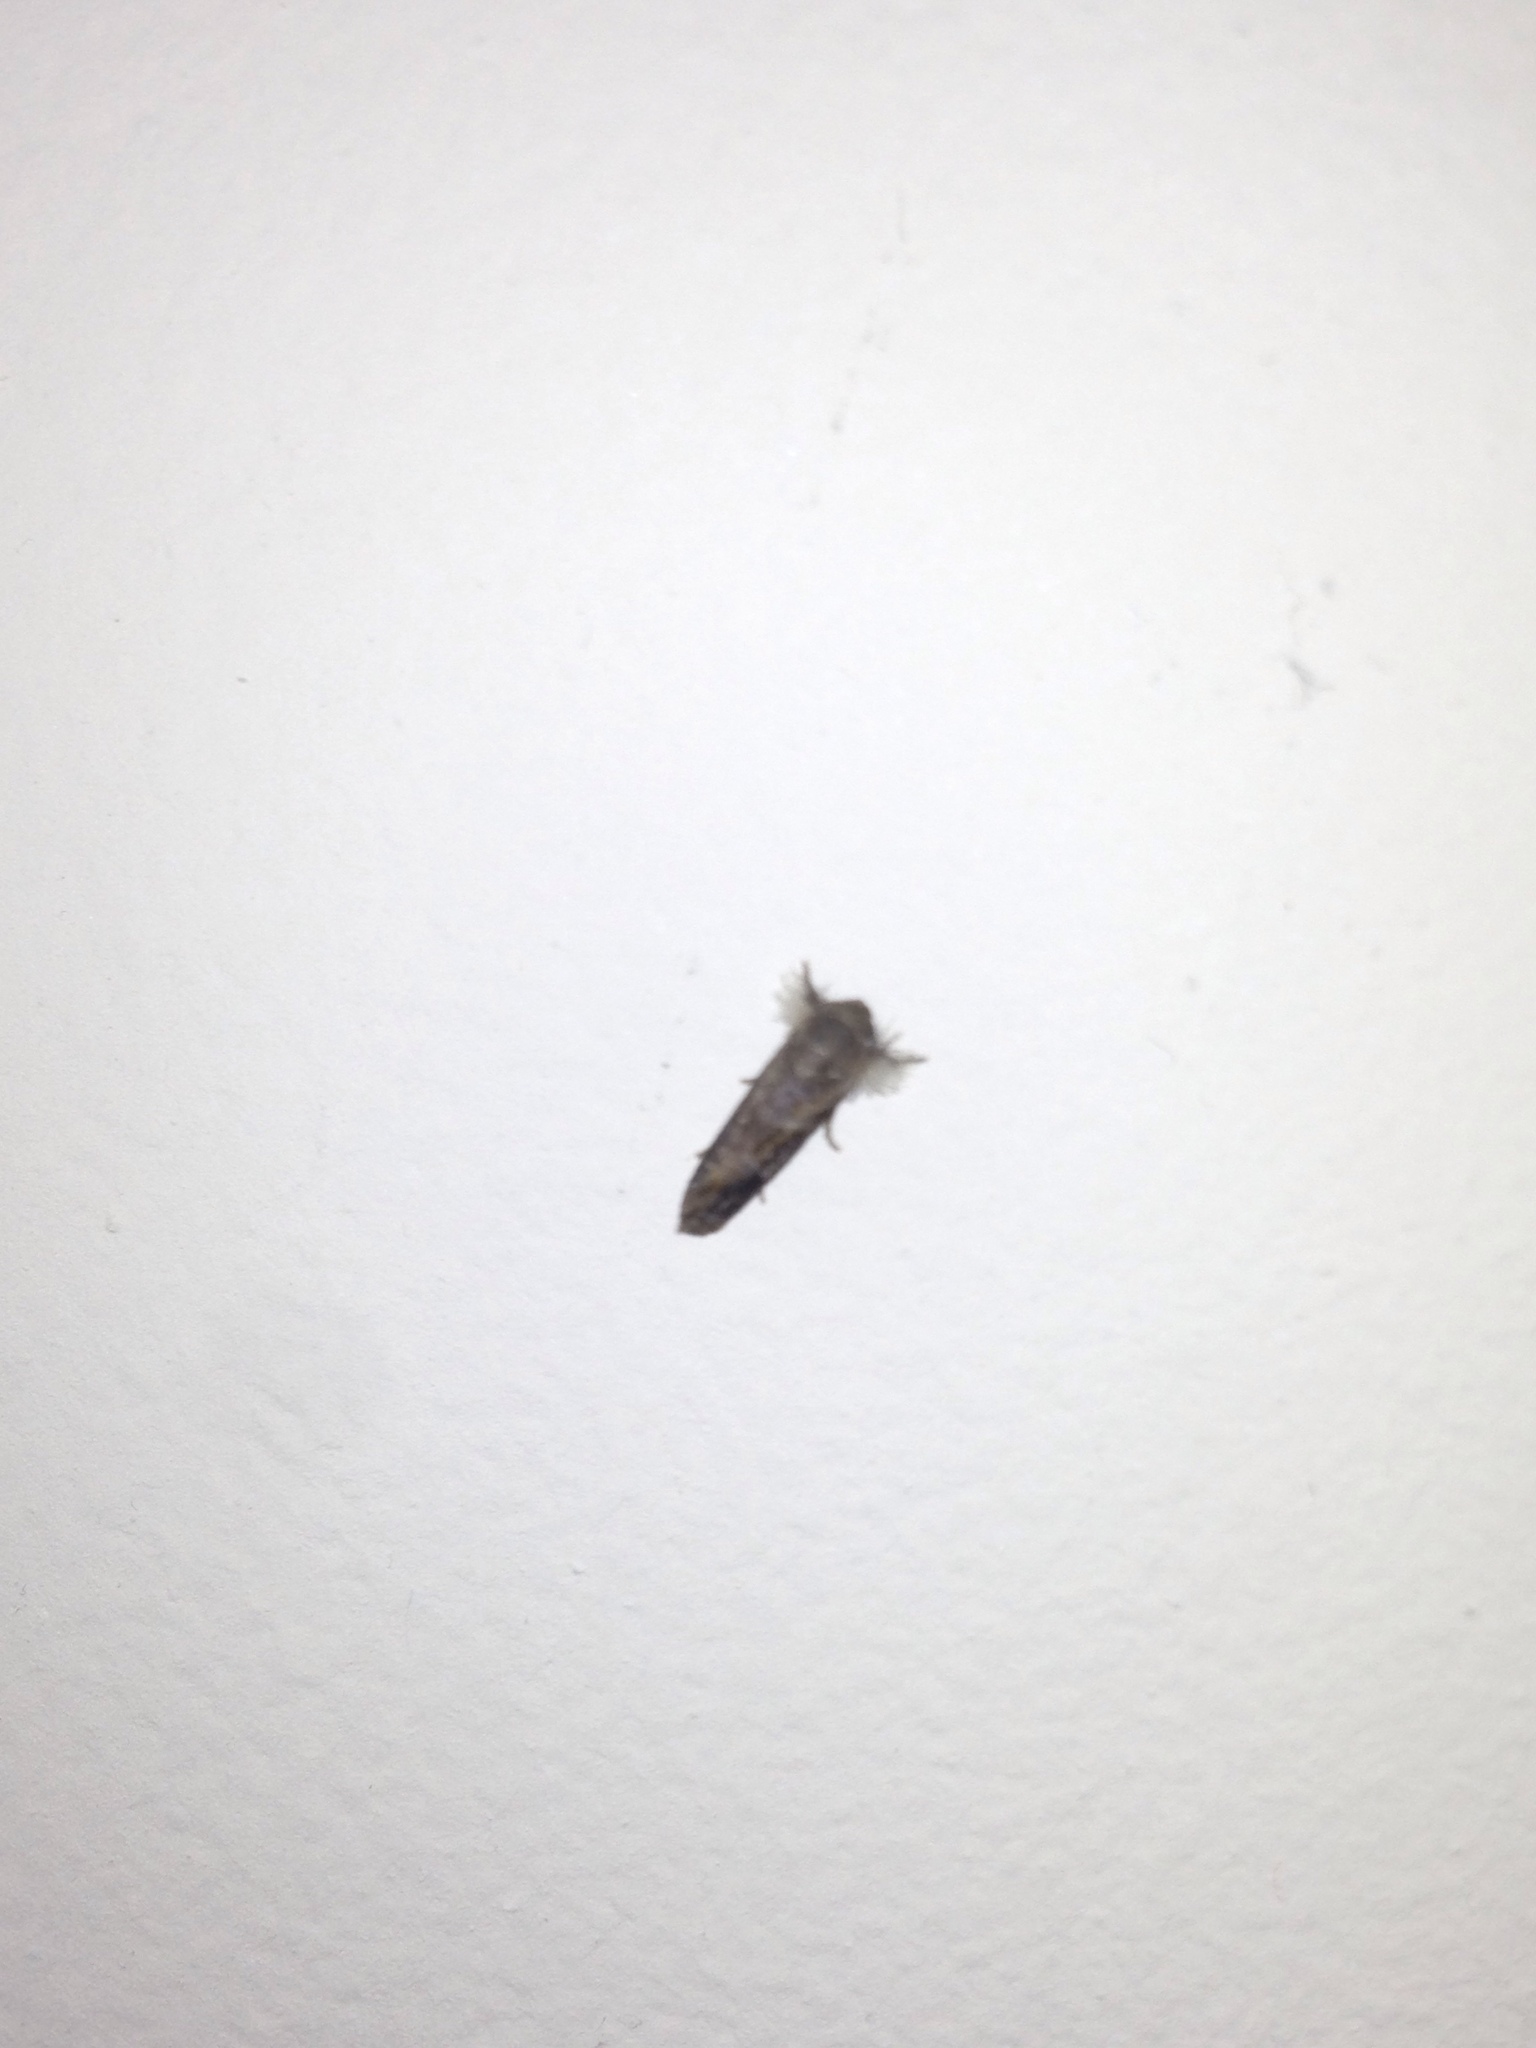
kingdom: Animalia
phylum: Arthropoda
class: Insecta
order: Lepidoptera
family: Tineidae
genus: Acrolophus
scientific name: Acrolophus piger
